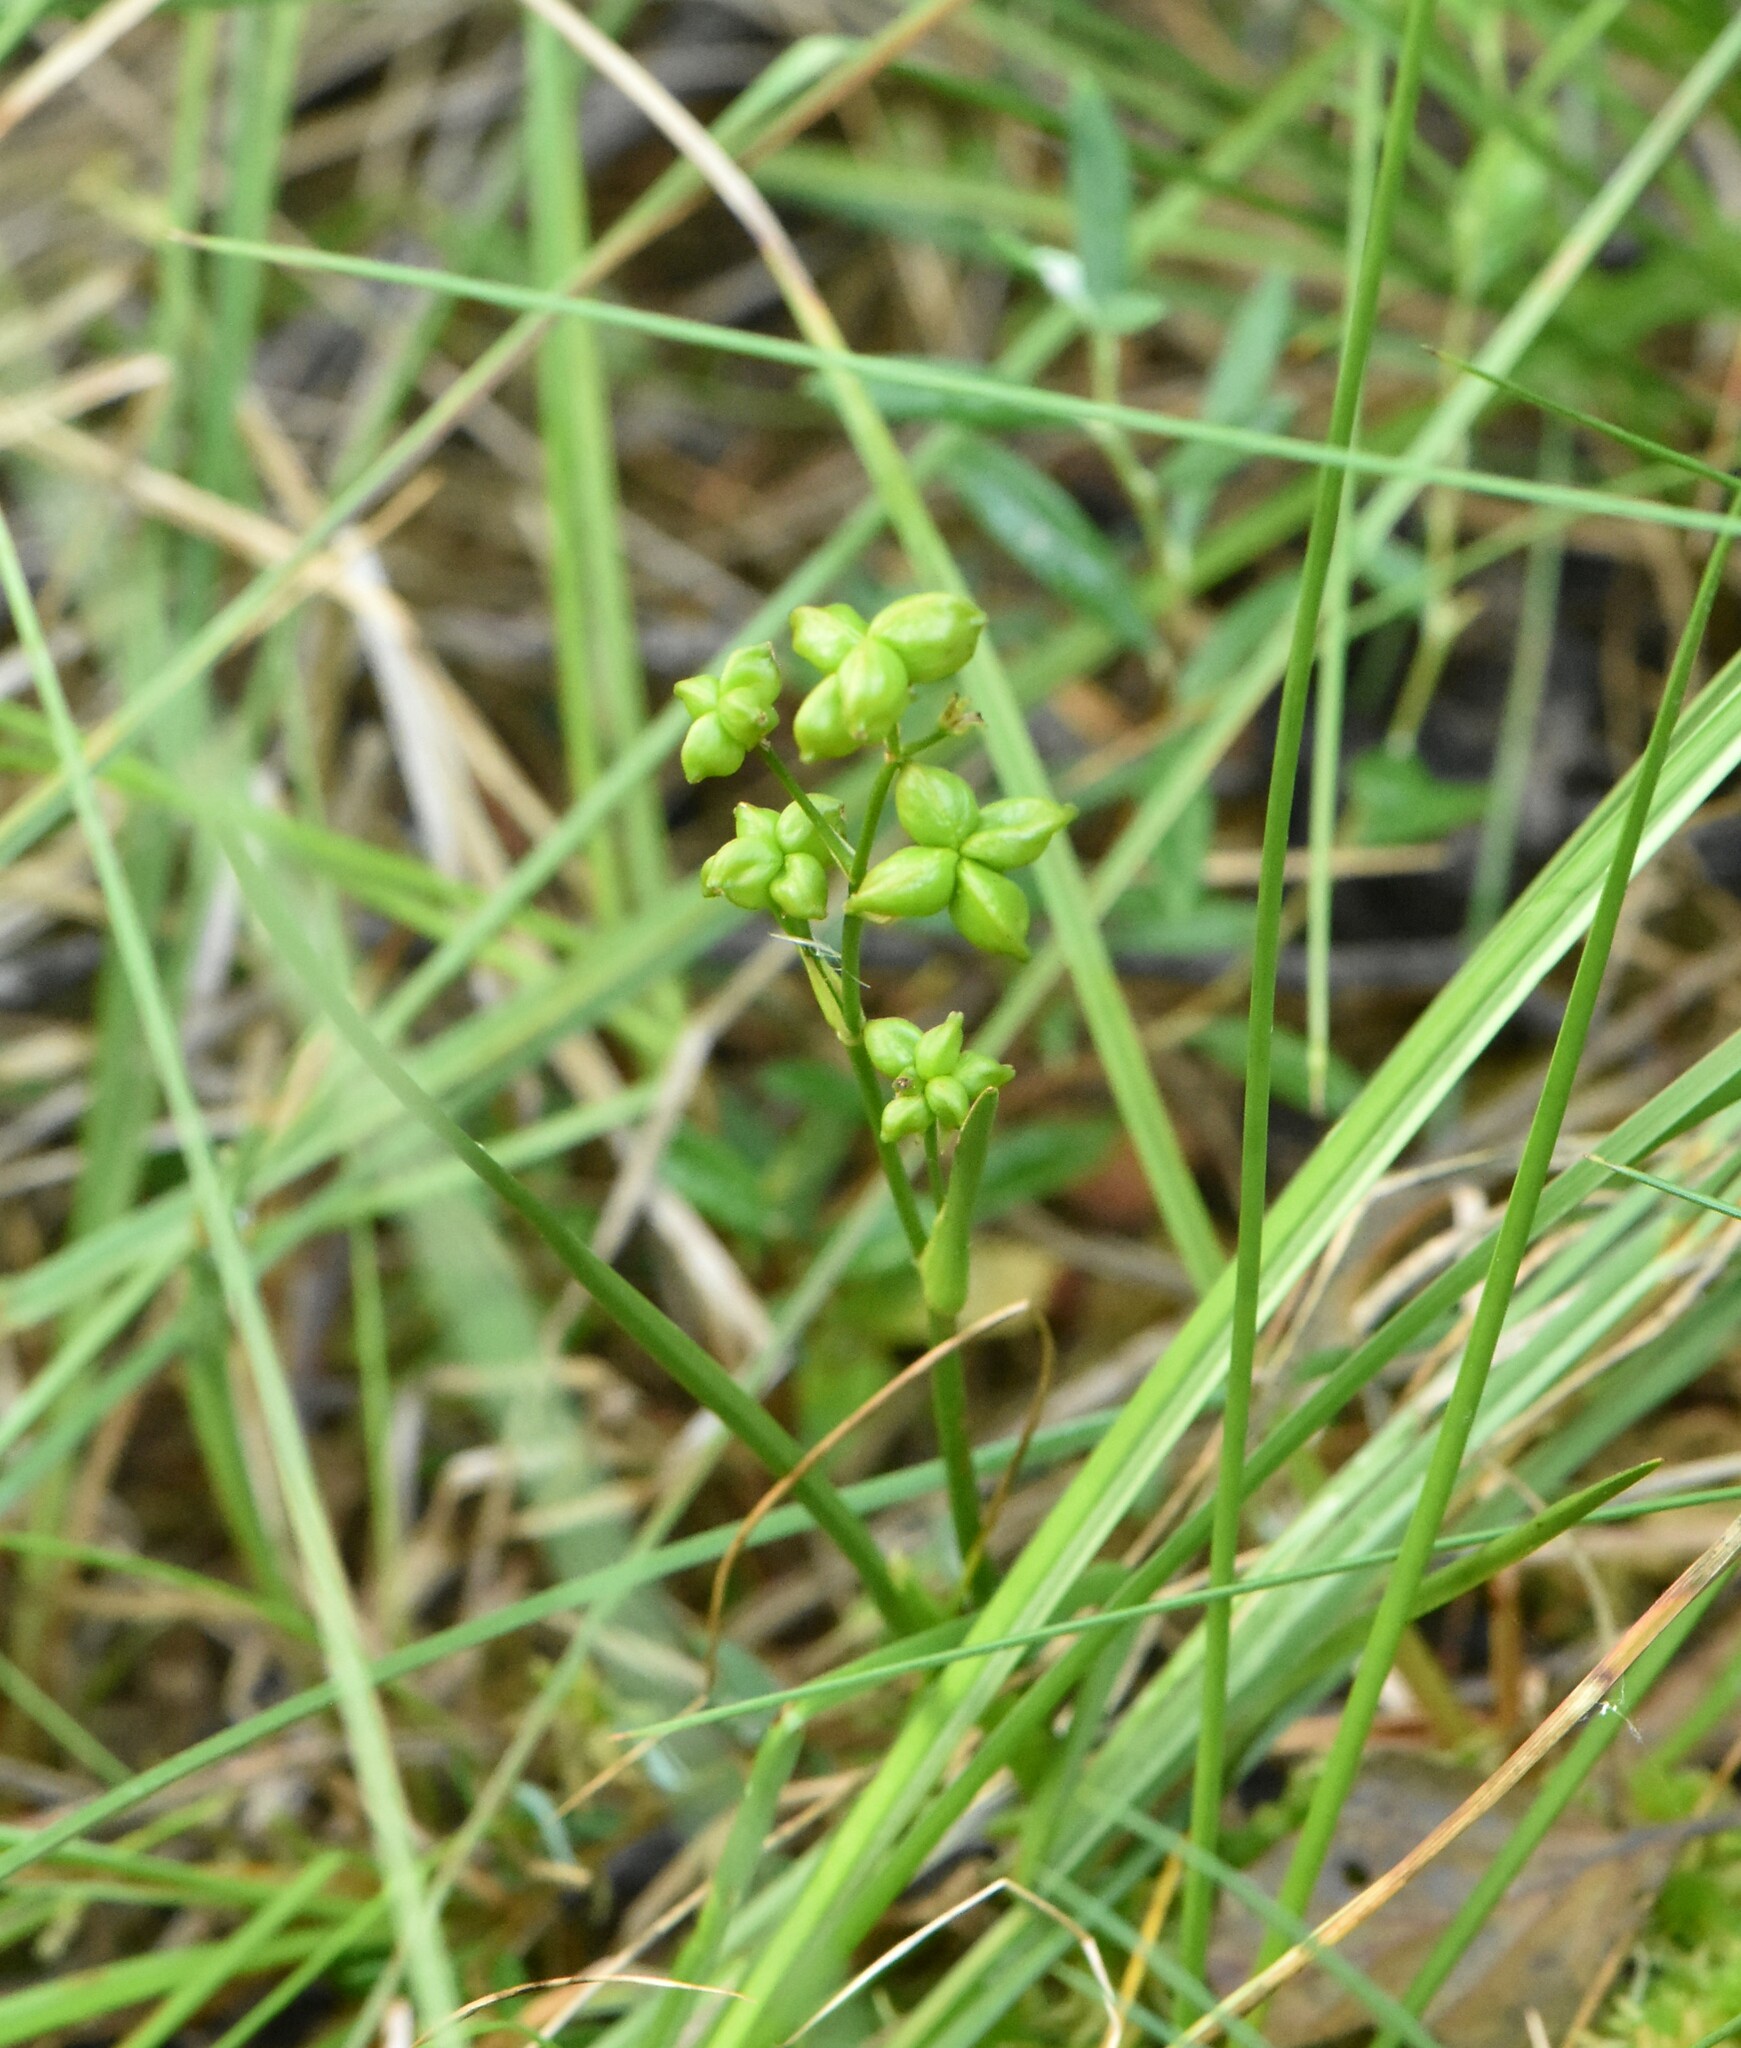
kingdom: Plantae
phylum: Tracheophyta
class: Liliopsida
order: Alismatales
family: Scheuchzeriaceae
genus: Scheuchzeria
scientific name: Scheuchzeria palustris
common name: Rannoch-rush
